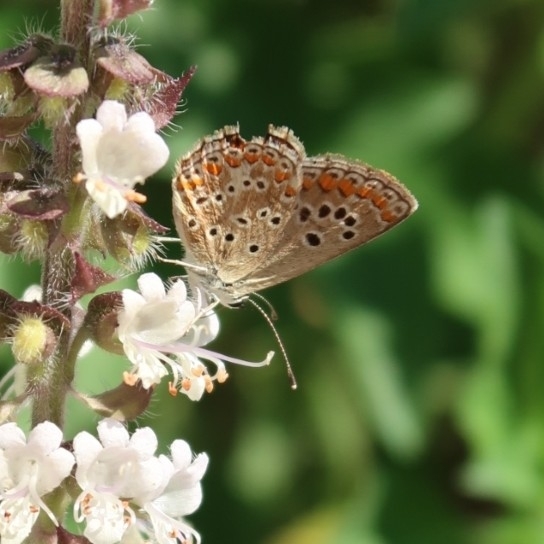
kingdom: Animalia
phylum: Arthropoda
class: Insecta
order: Lepidoptera
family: Lycaenidae
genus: Aricia
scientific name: Aricia agestis
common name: Brown argus
